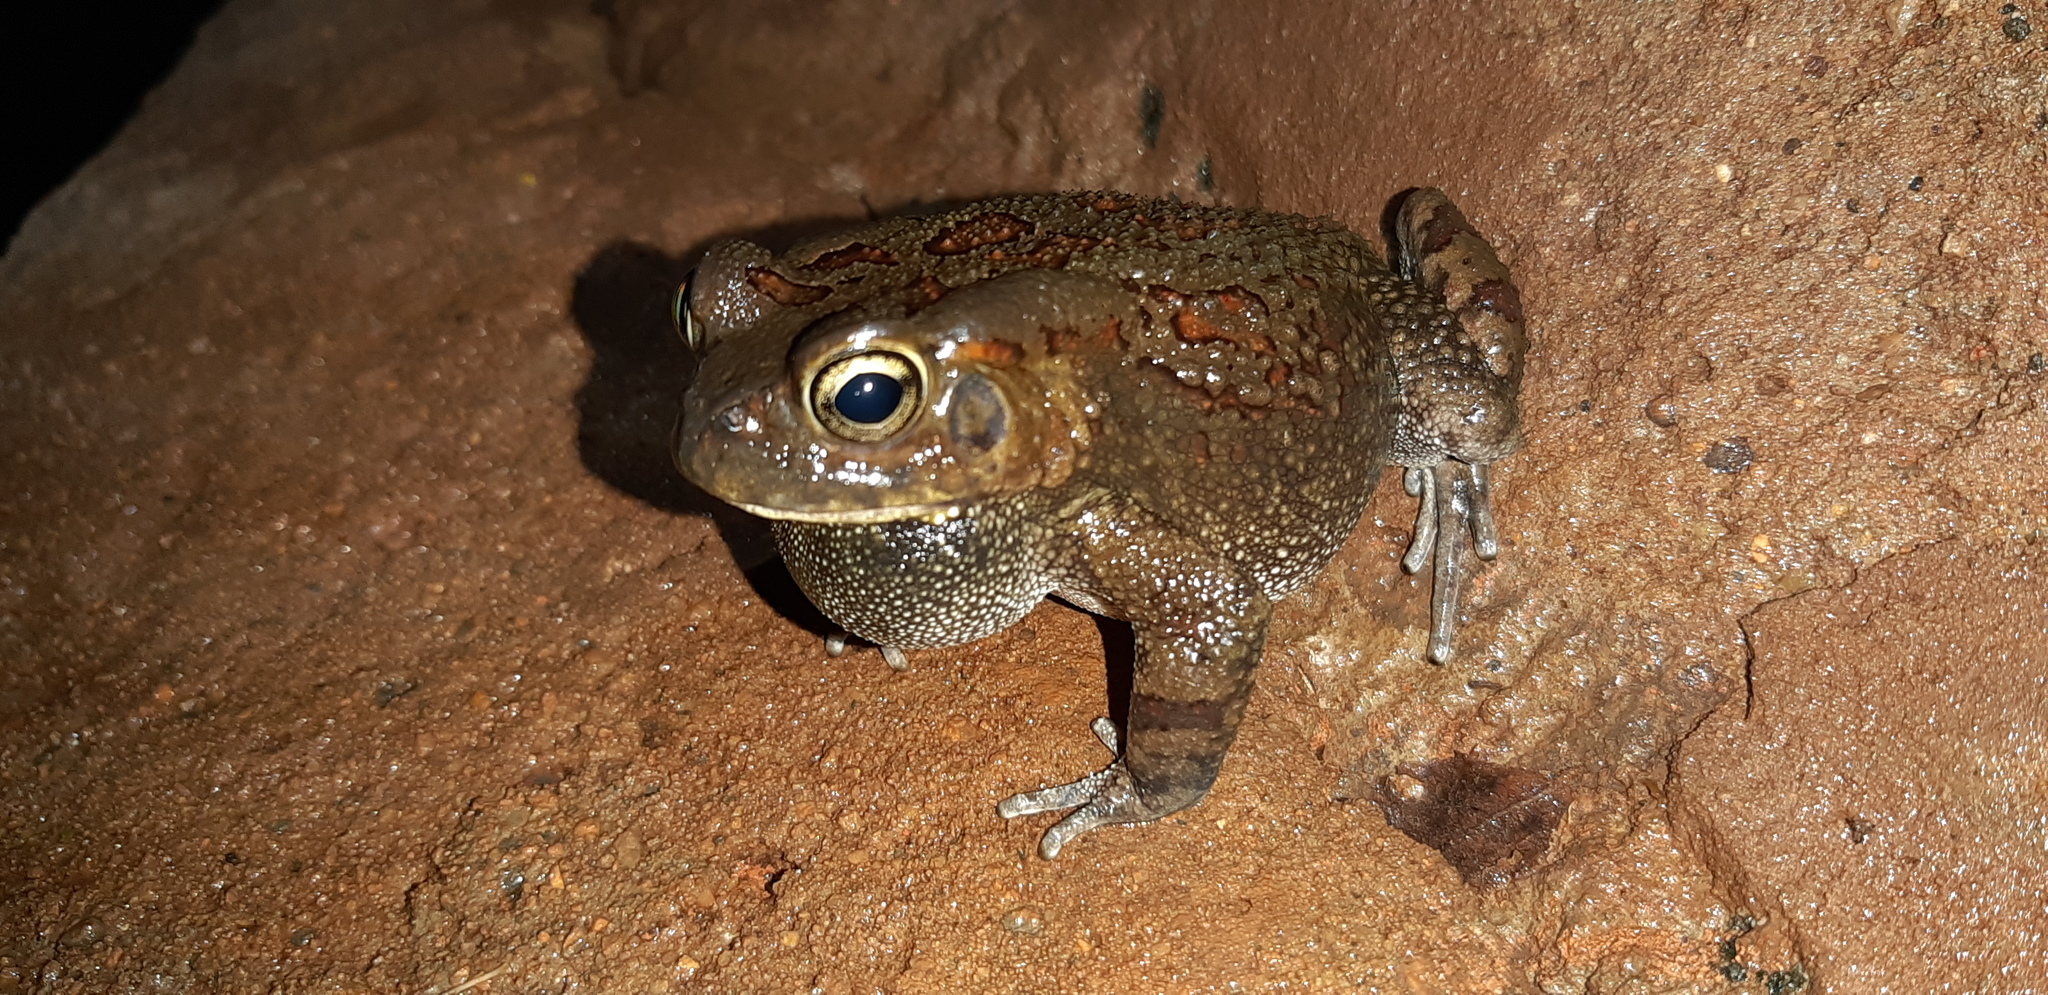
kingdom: Animalia
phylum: Chordata
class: Amphibia
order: Anura
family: Bufonidae
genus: Sclerophrys
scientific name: Sclerophrys garmani
